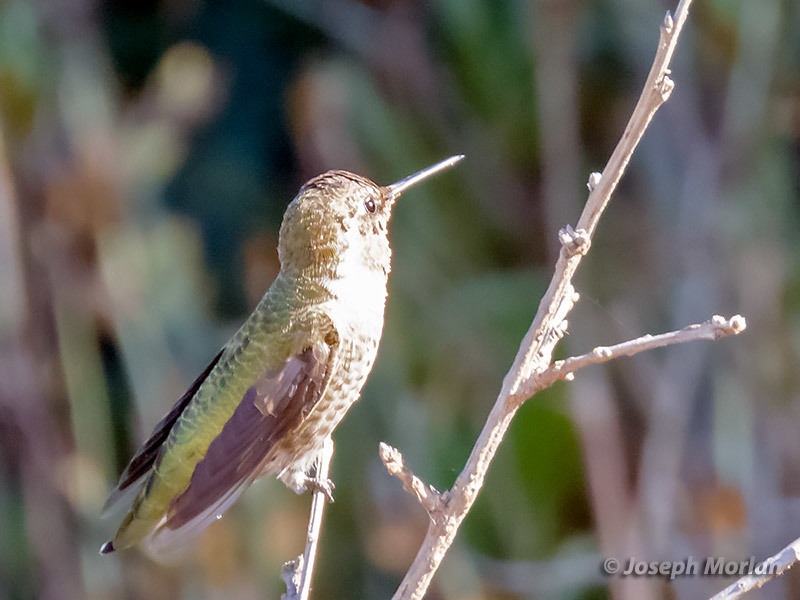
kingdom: Animalia
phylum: Chordata
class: Aves
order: Apodiformes
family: Trochilidae
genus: Calypte
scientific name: Calypte anna
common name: Anna's hummingbird
